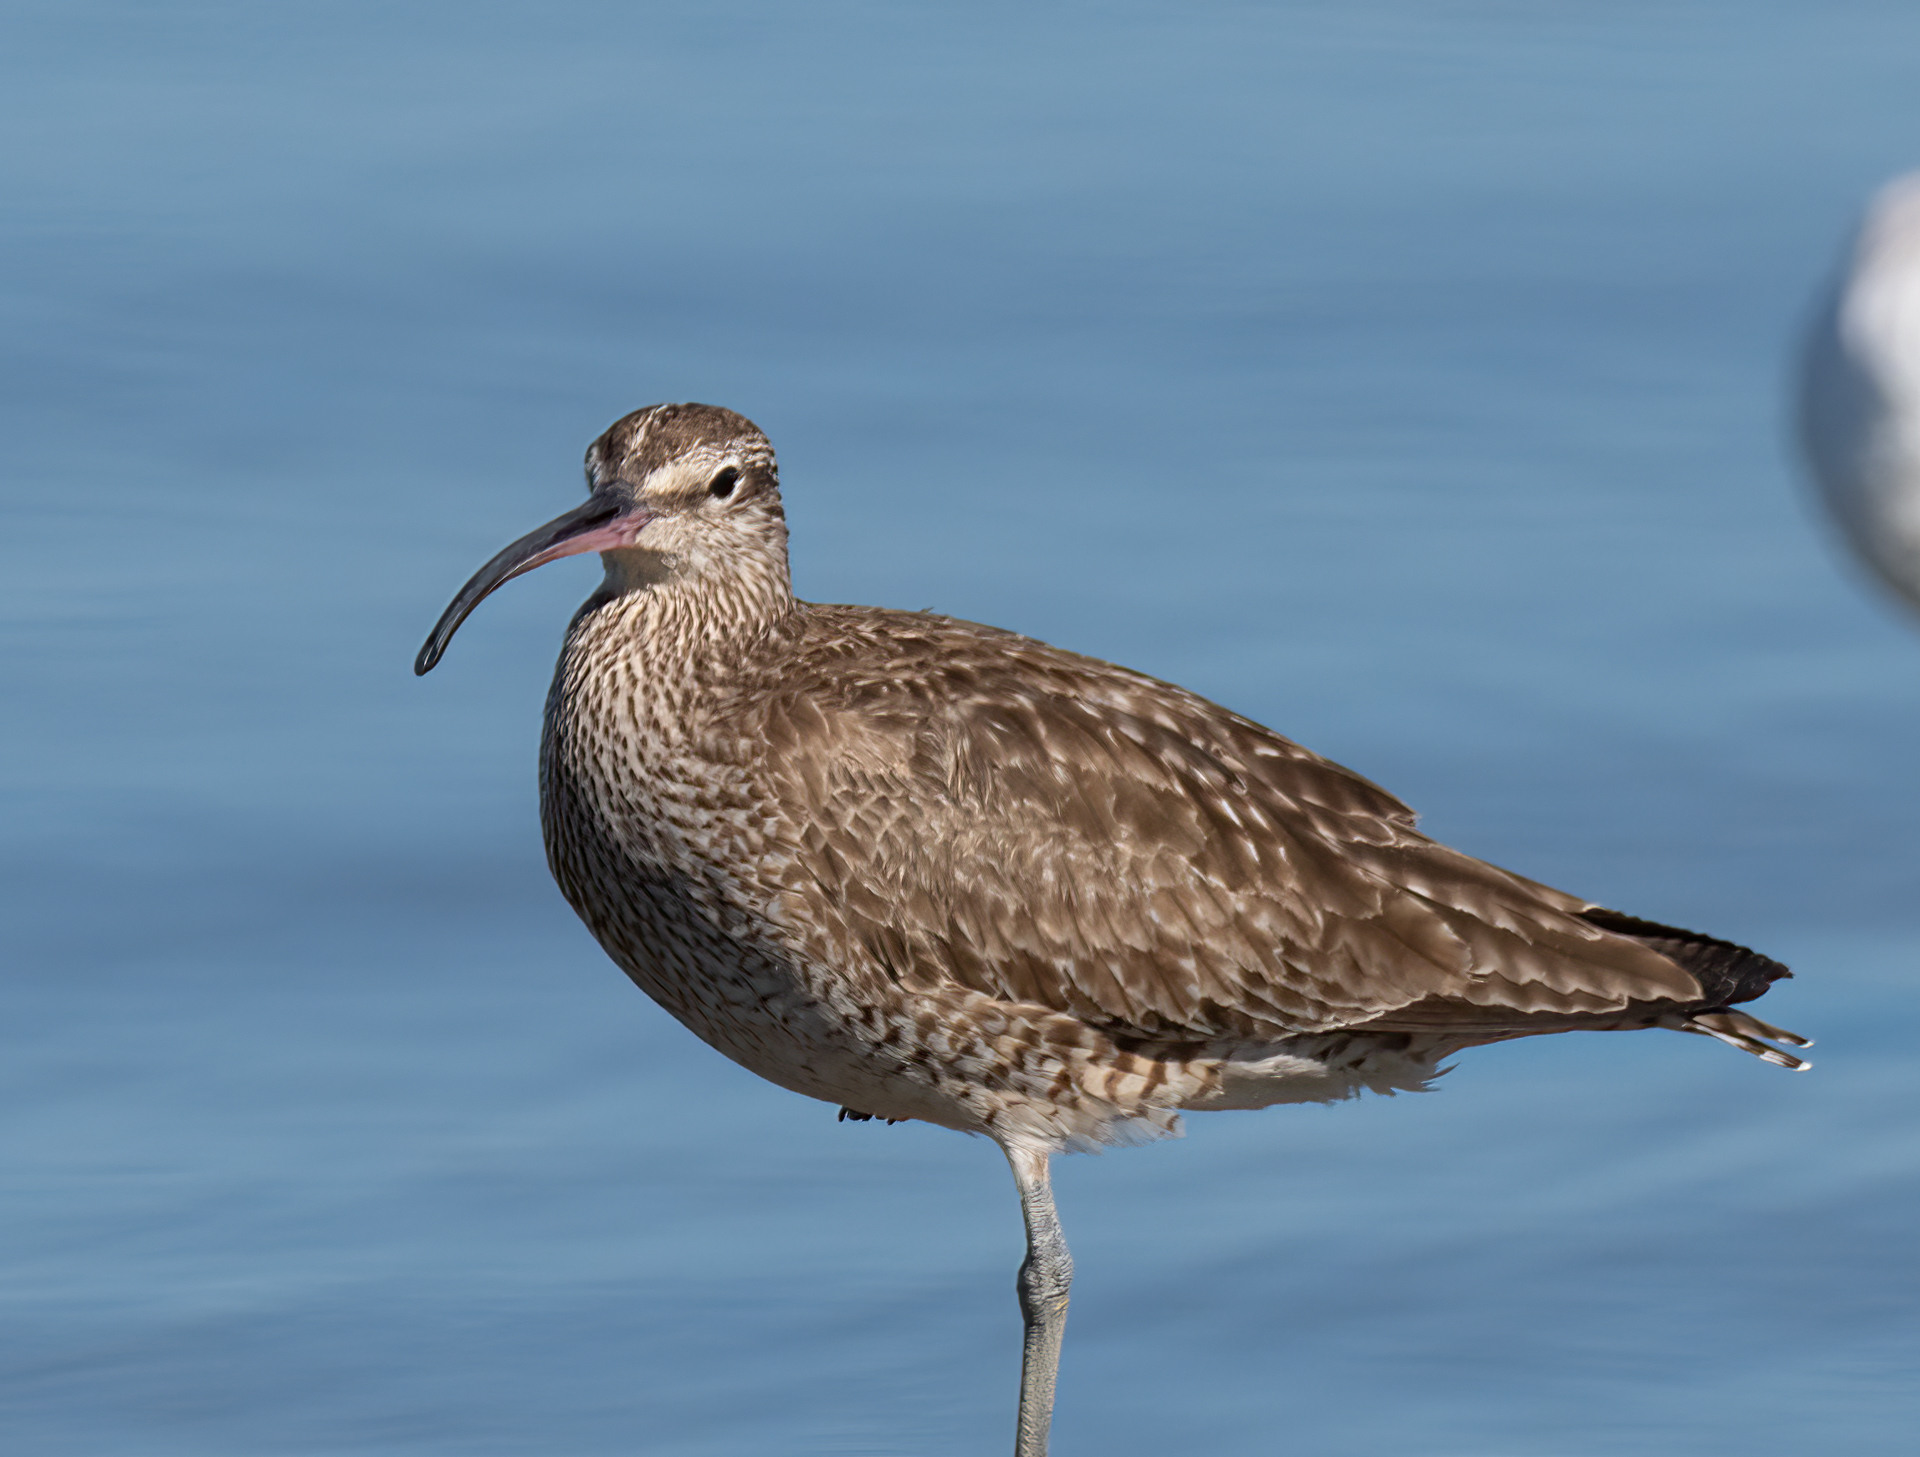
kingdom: Animalia
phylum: Chordata
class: Aves
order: Charadriiformes
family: Scolopacidae
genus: Numenius
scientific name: Numenius phaeopus
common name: Whimbrel
